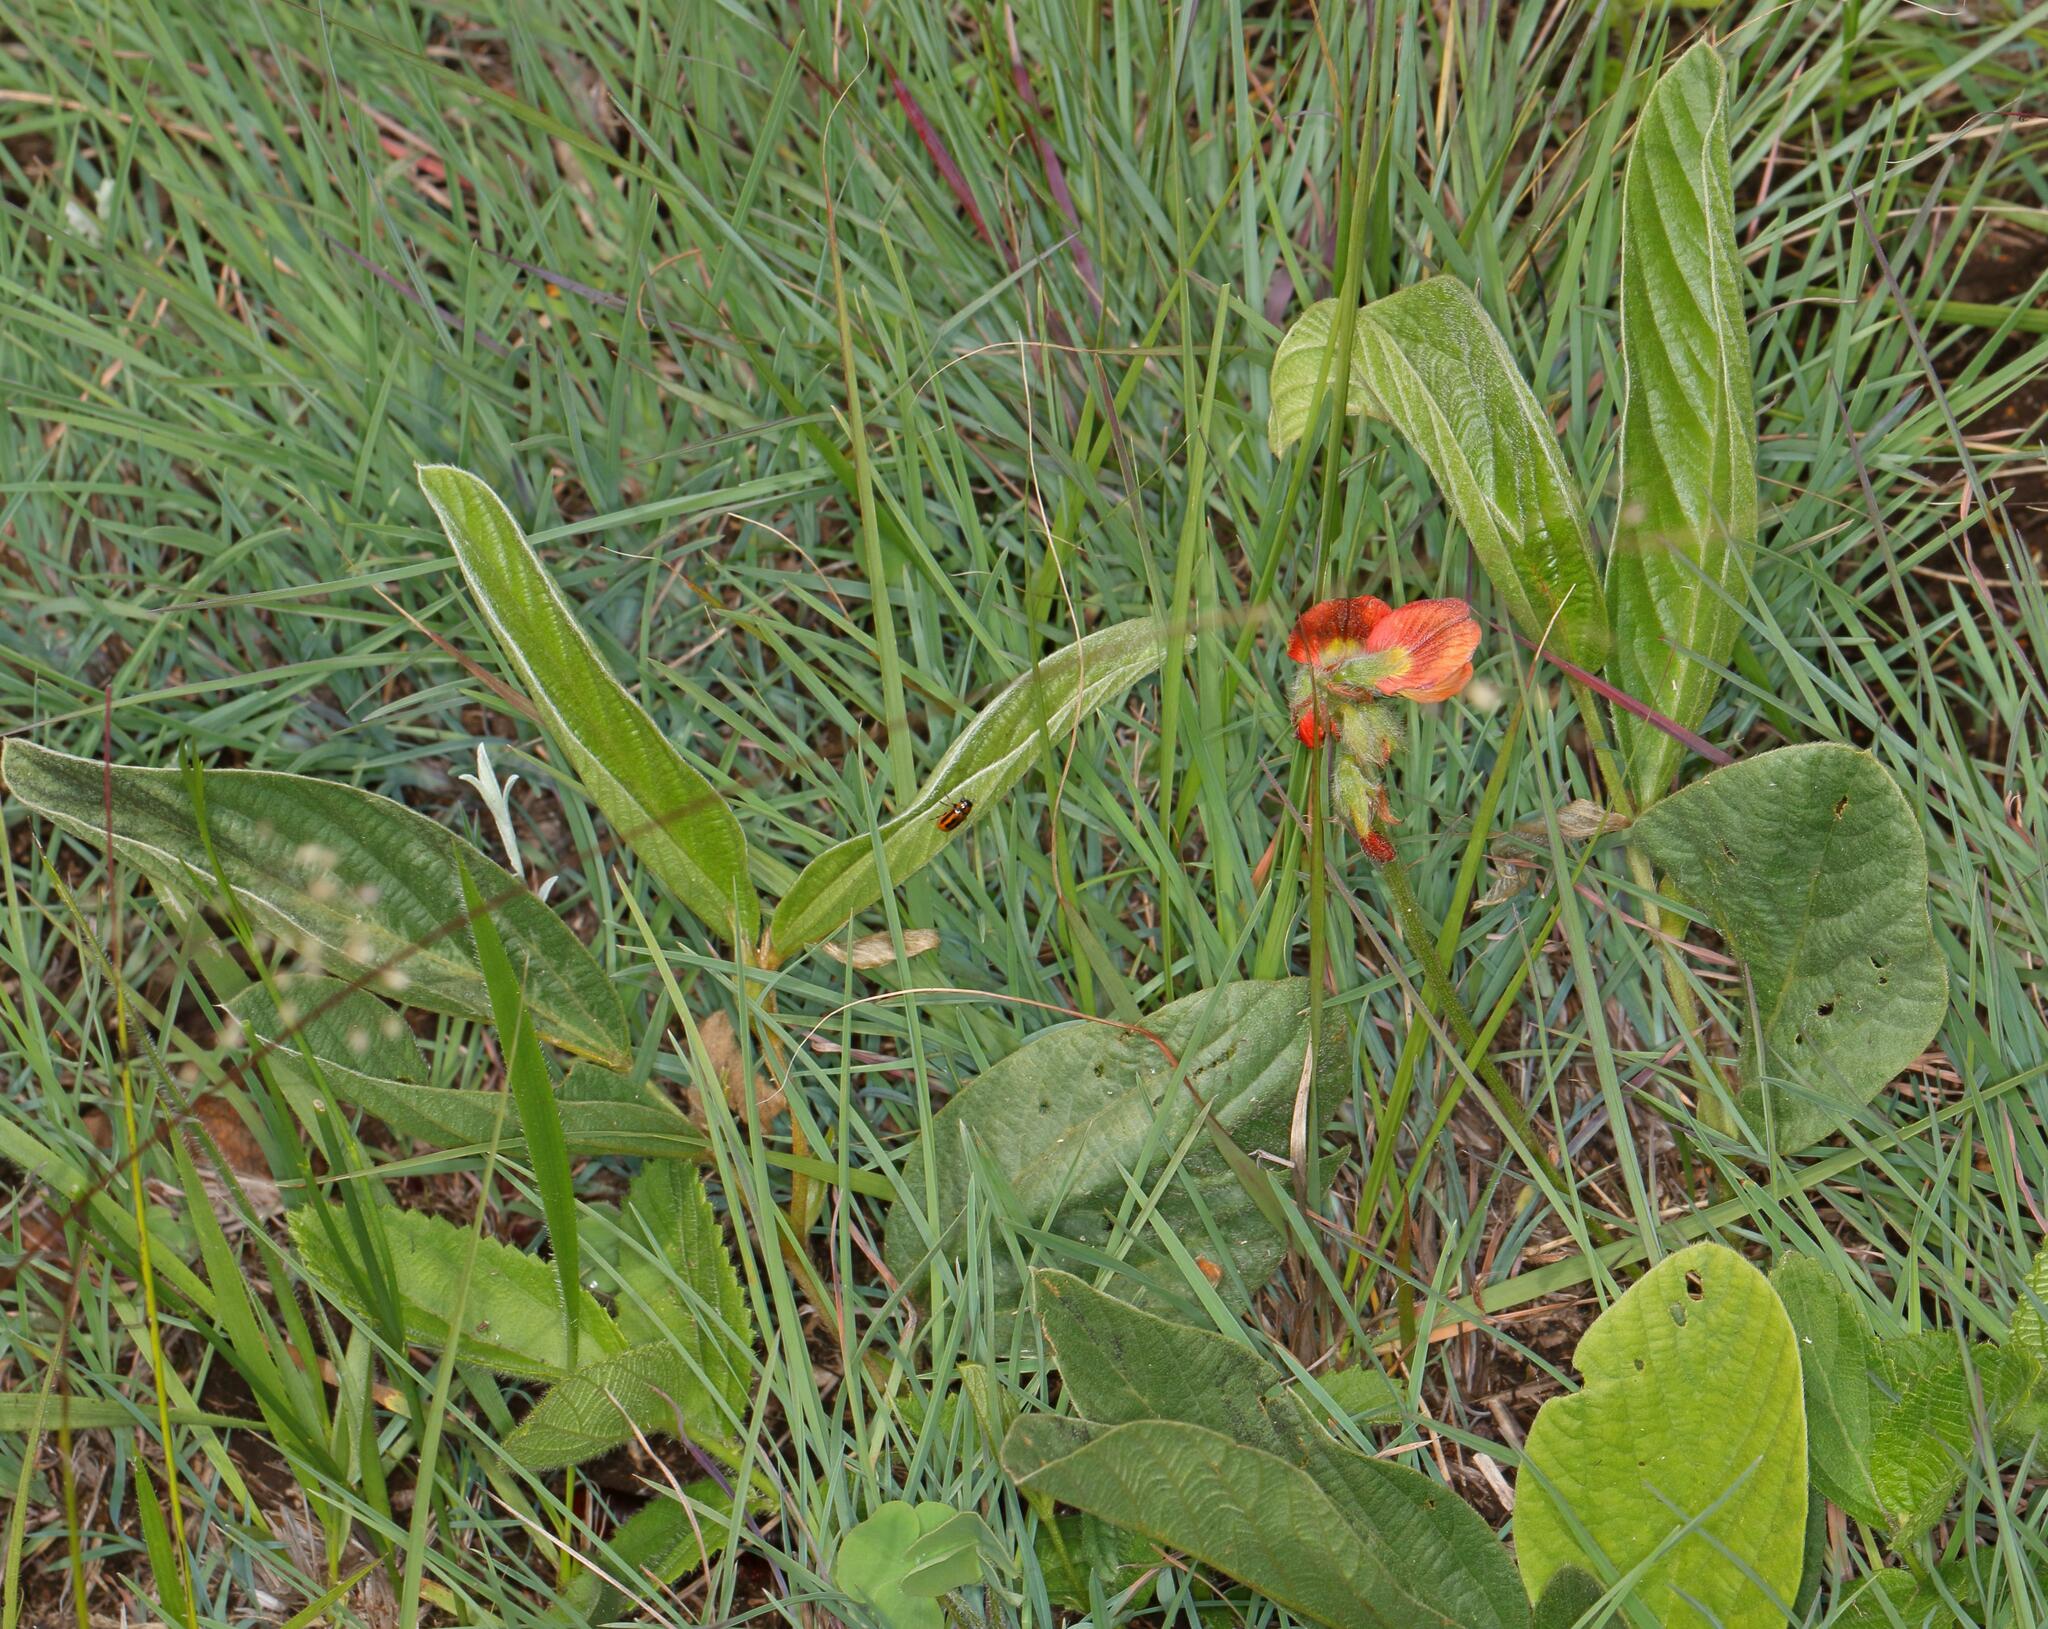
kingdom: Plantae
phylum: Tracheophyta
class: Magnoliopsida
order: Fabales
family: Fabaceae
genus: Eriosema
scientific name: Eriosema distinctum
